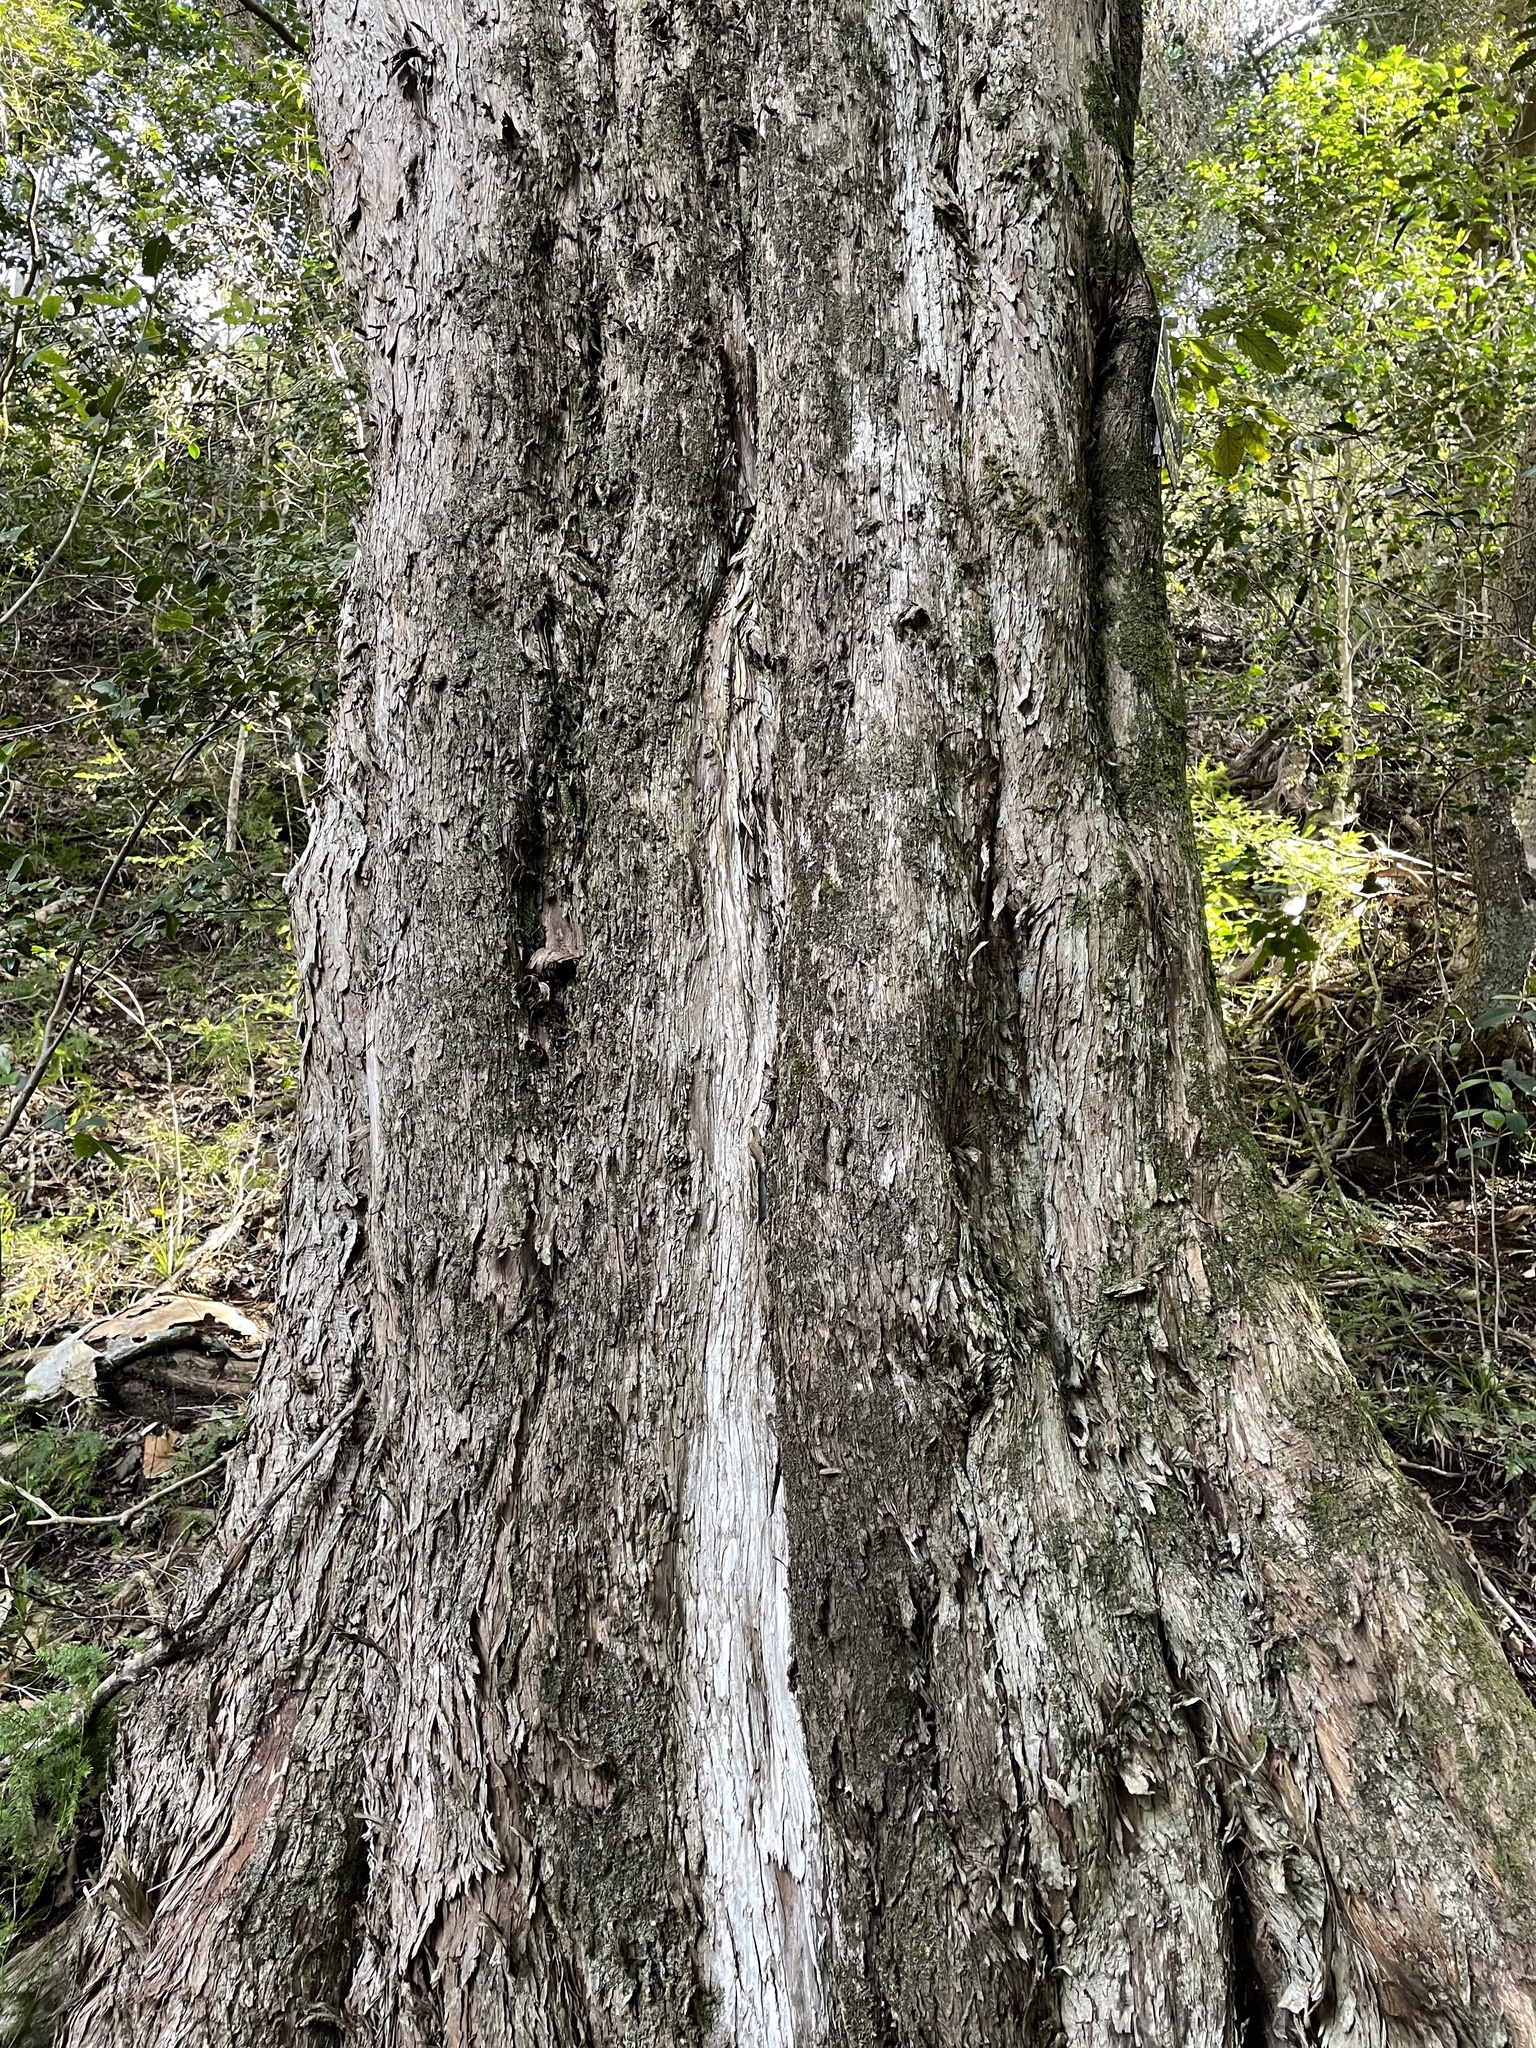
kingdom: Plantae
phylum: Tracheophyta
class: Pinopsida
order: Pinales
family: Podocarpaceae
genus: Podocarpus
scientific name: Podocarpus latifolius
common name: True yellowwood
